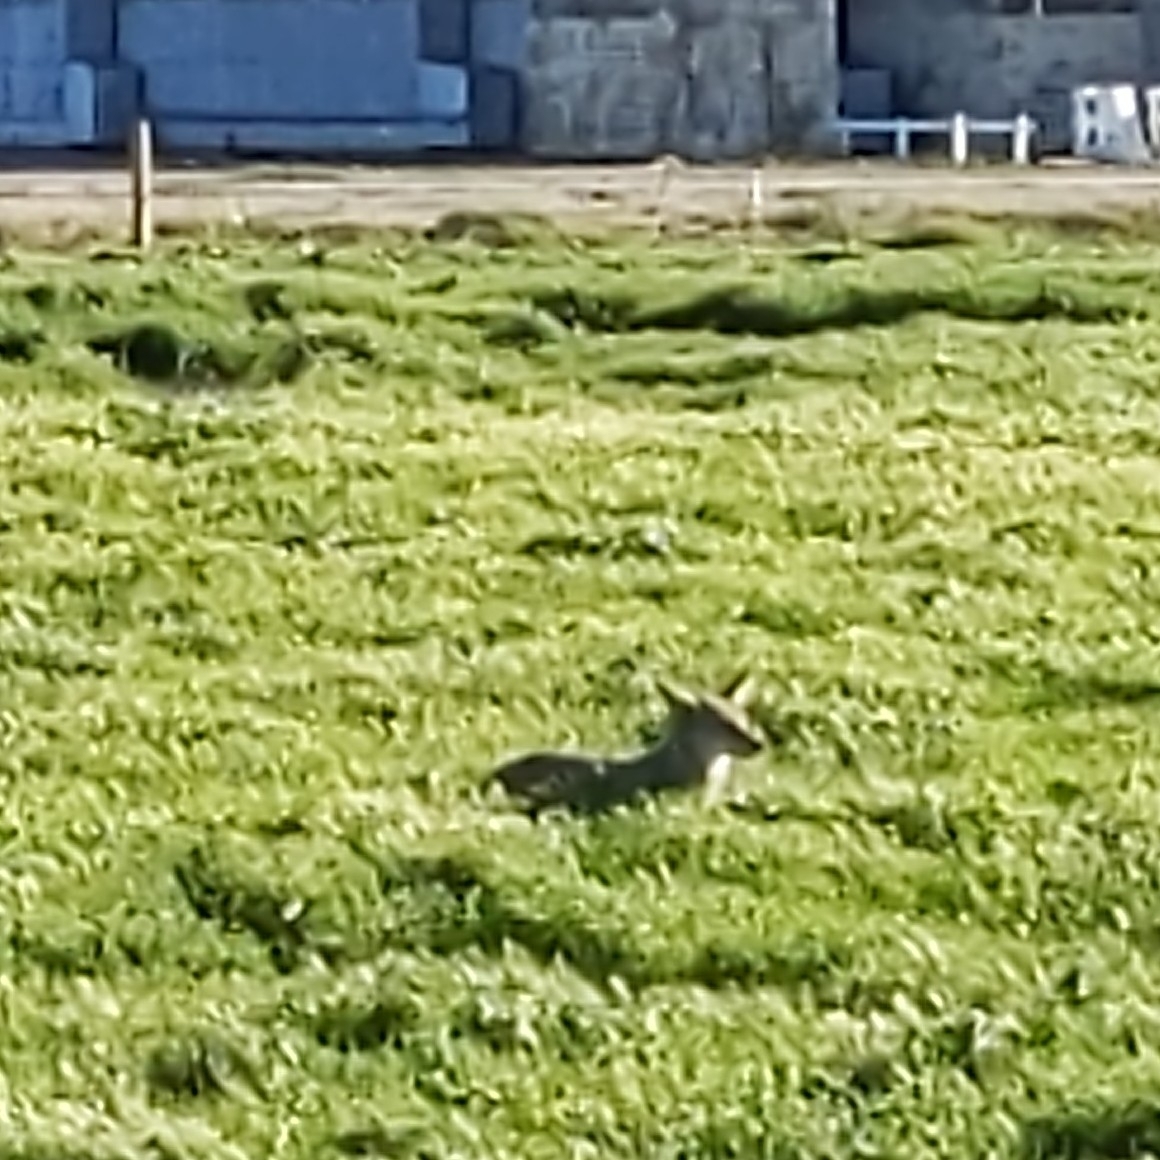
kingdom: Animalia
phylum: Chordata
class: Mammalia
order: Carnivora
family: Canidae
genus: Canis
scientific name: Canis latrans
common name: Coyote
